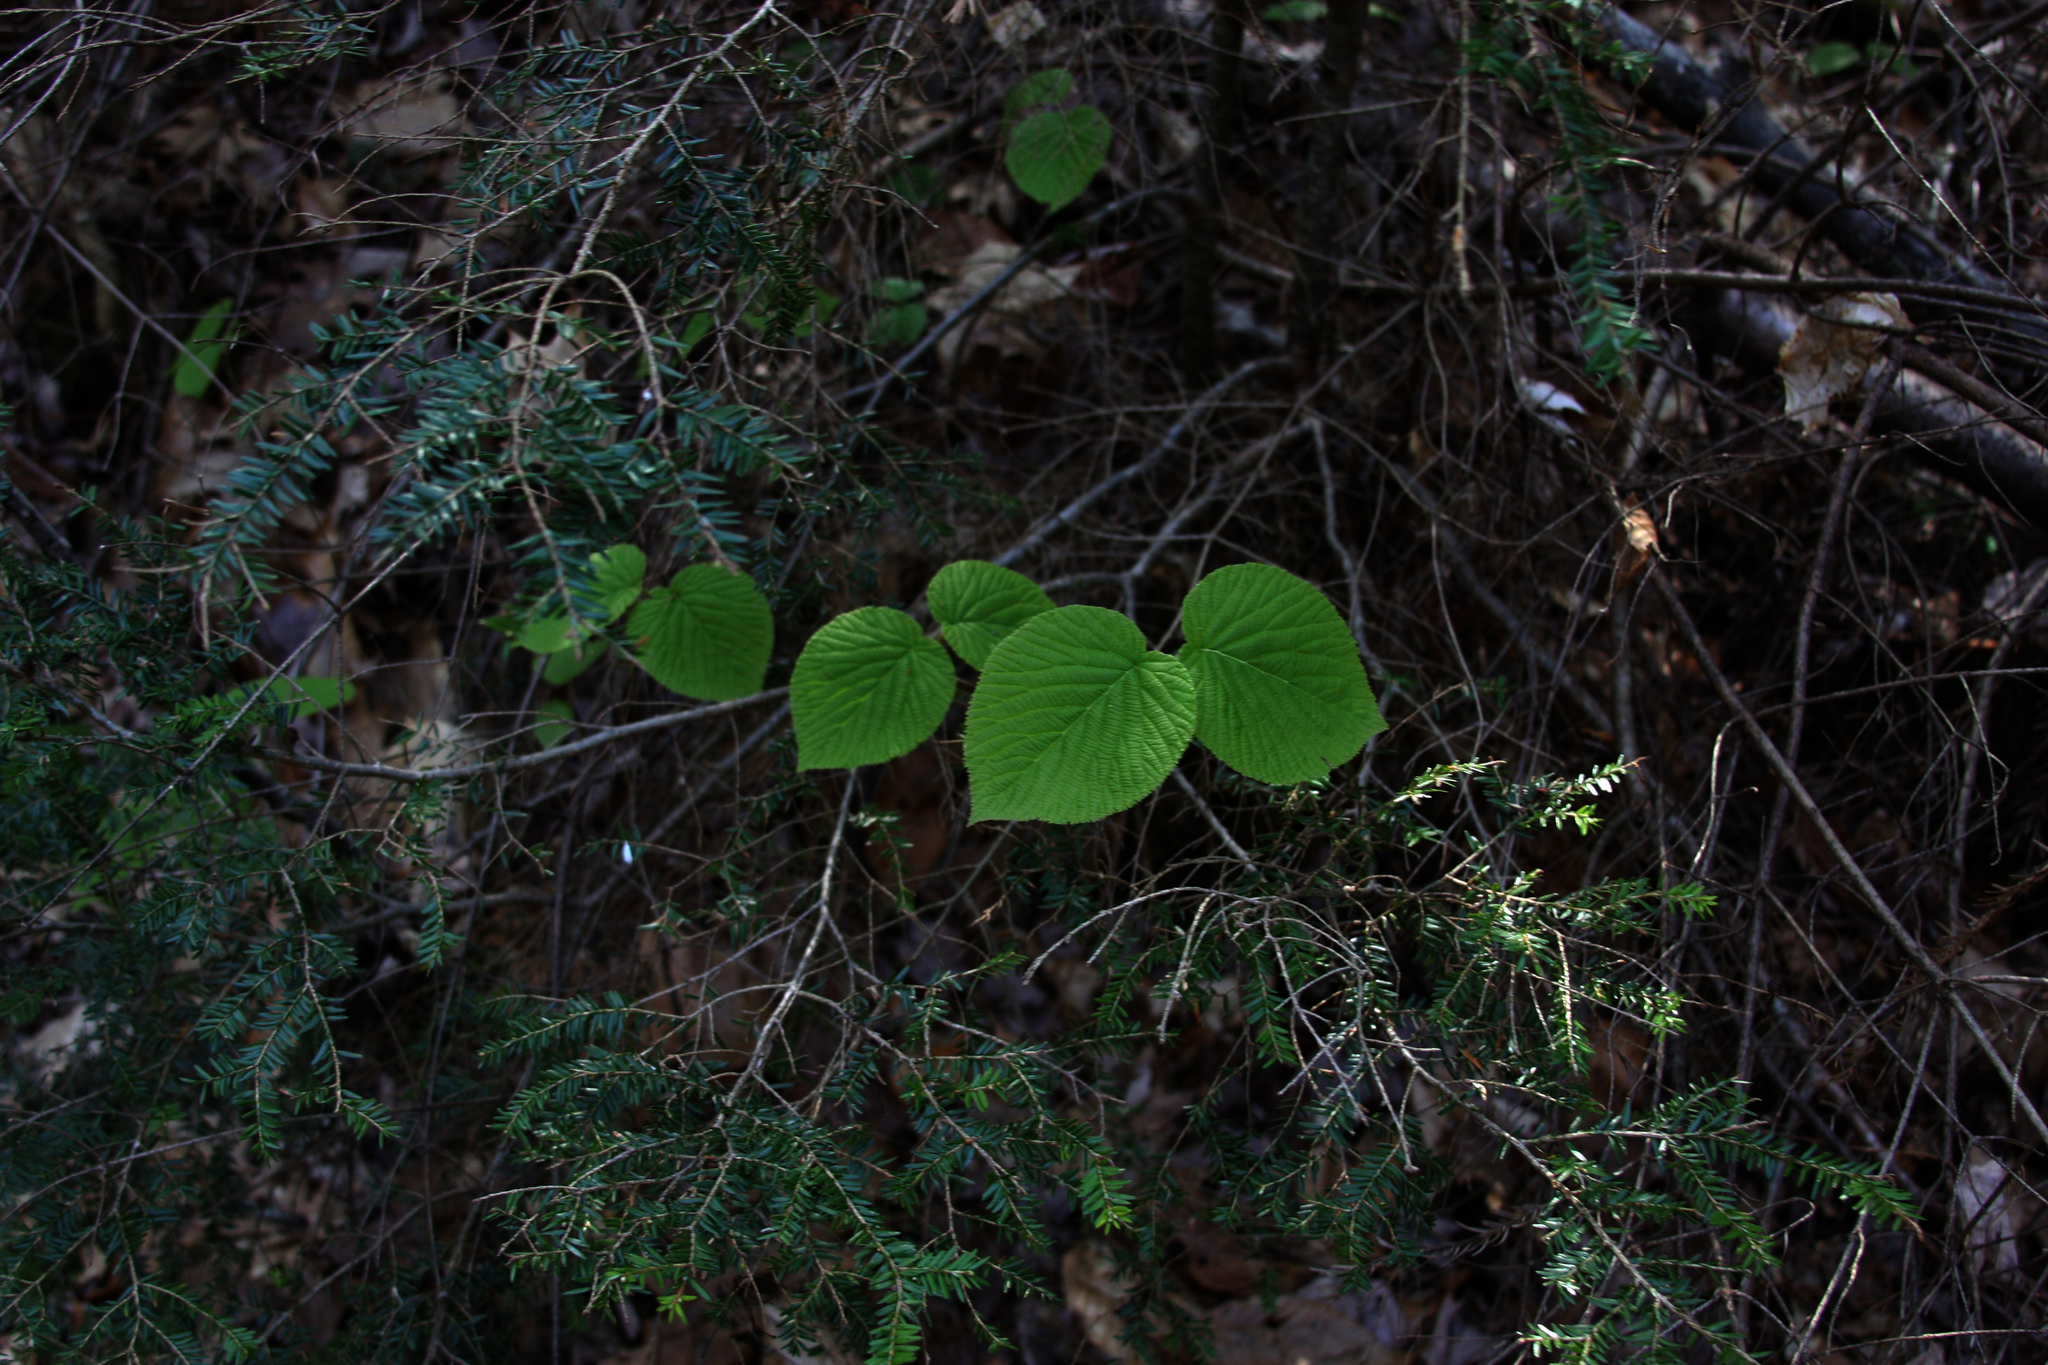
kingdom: Plantae
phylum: Tracheophyta
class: Pinopsida
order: Pinales
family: Pinaceae
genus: Tsuga
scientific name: Tsuga canadensis
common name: Eastern hemlock
